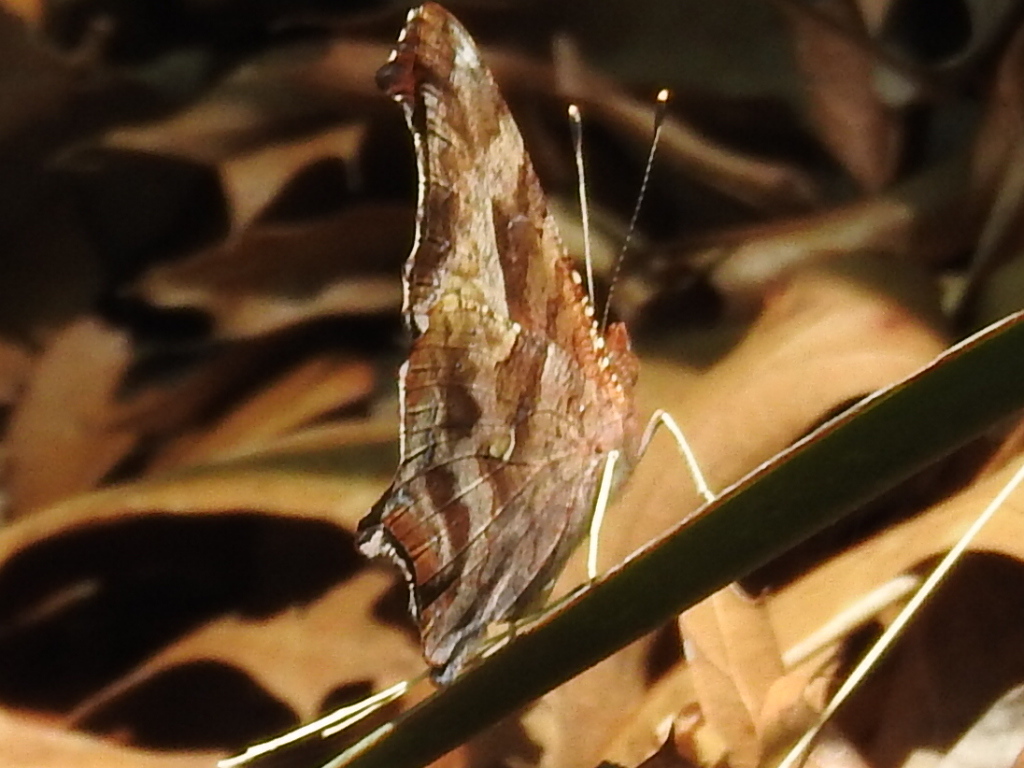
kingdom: Animalia
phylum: Arthropoda
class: Insecta
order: Lepidoptera
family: Nymphalidae
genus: Polygonia
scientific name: Polygonia interrogationis
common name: Question mark
